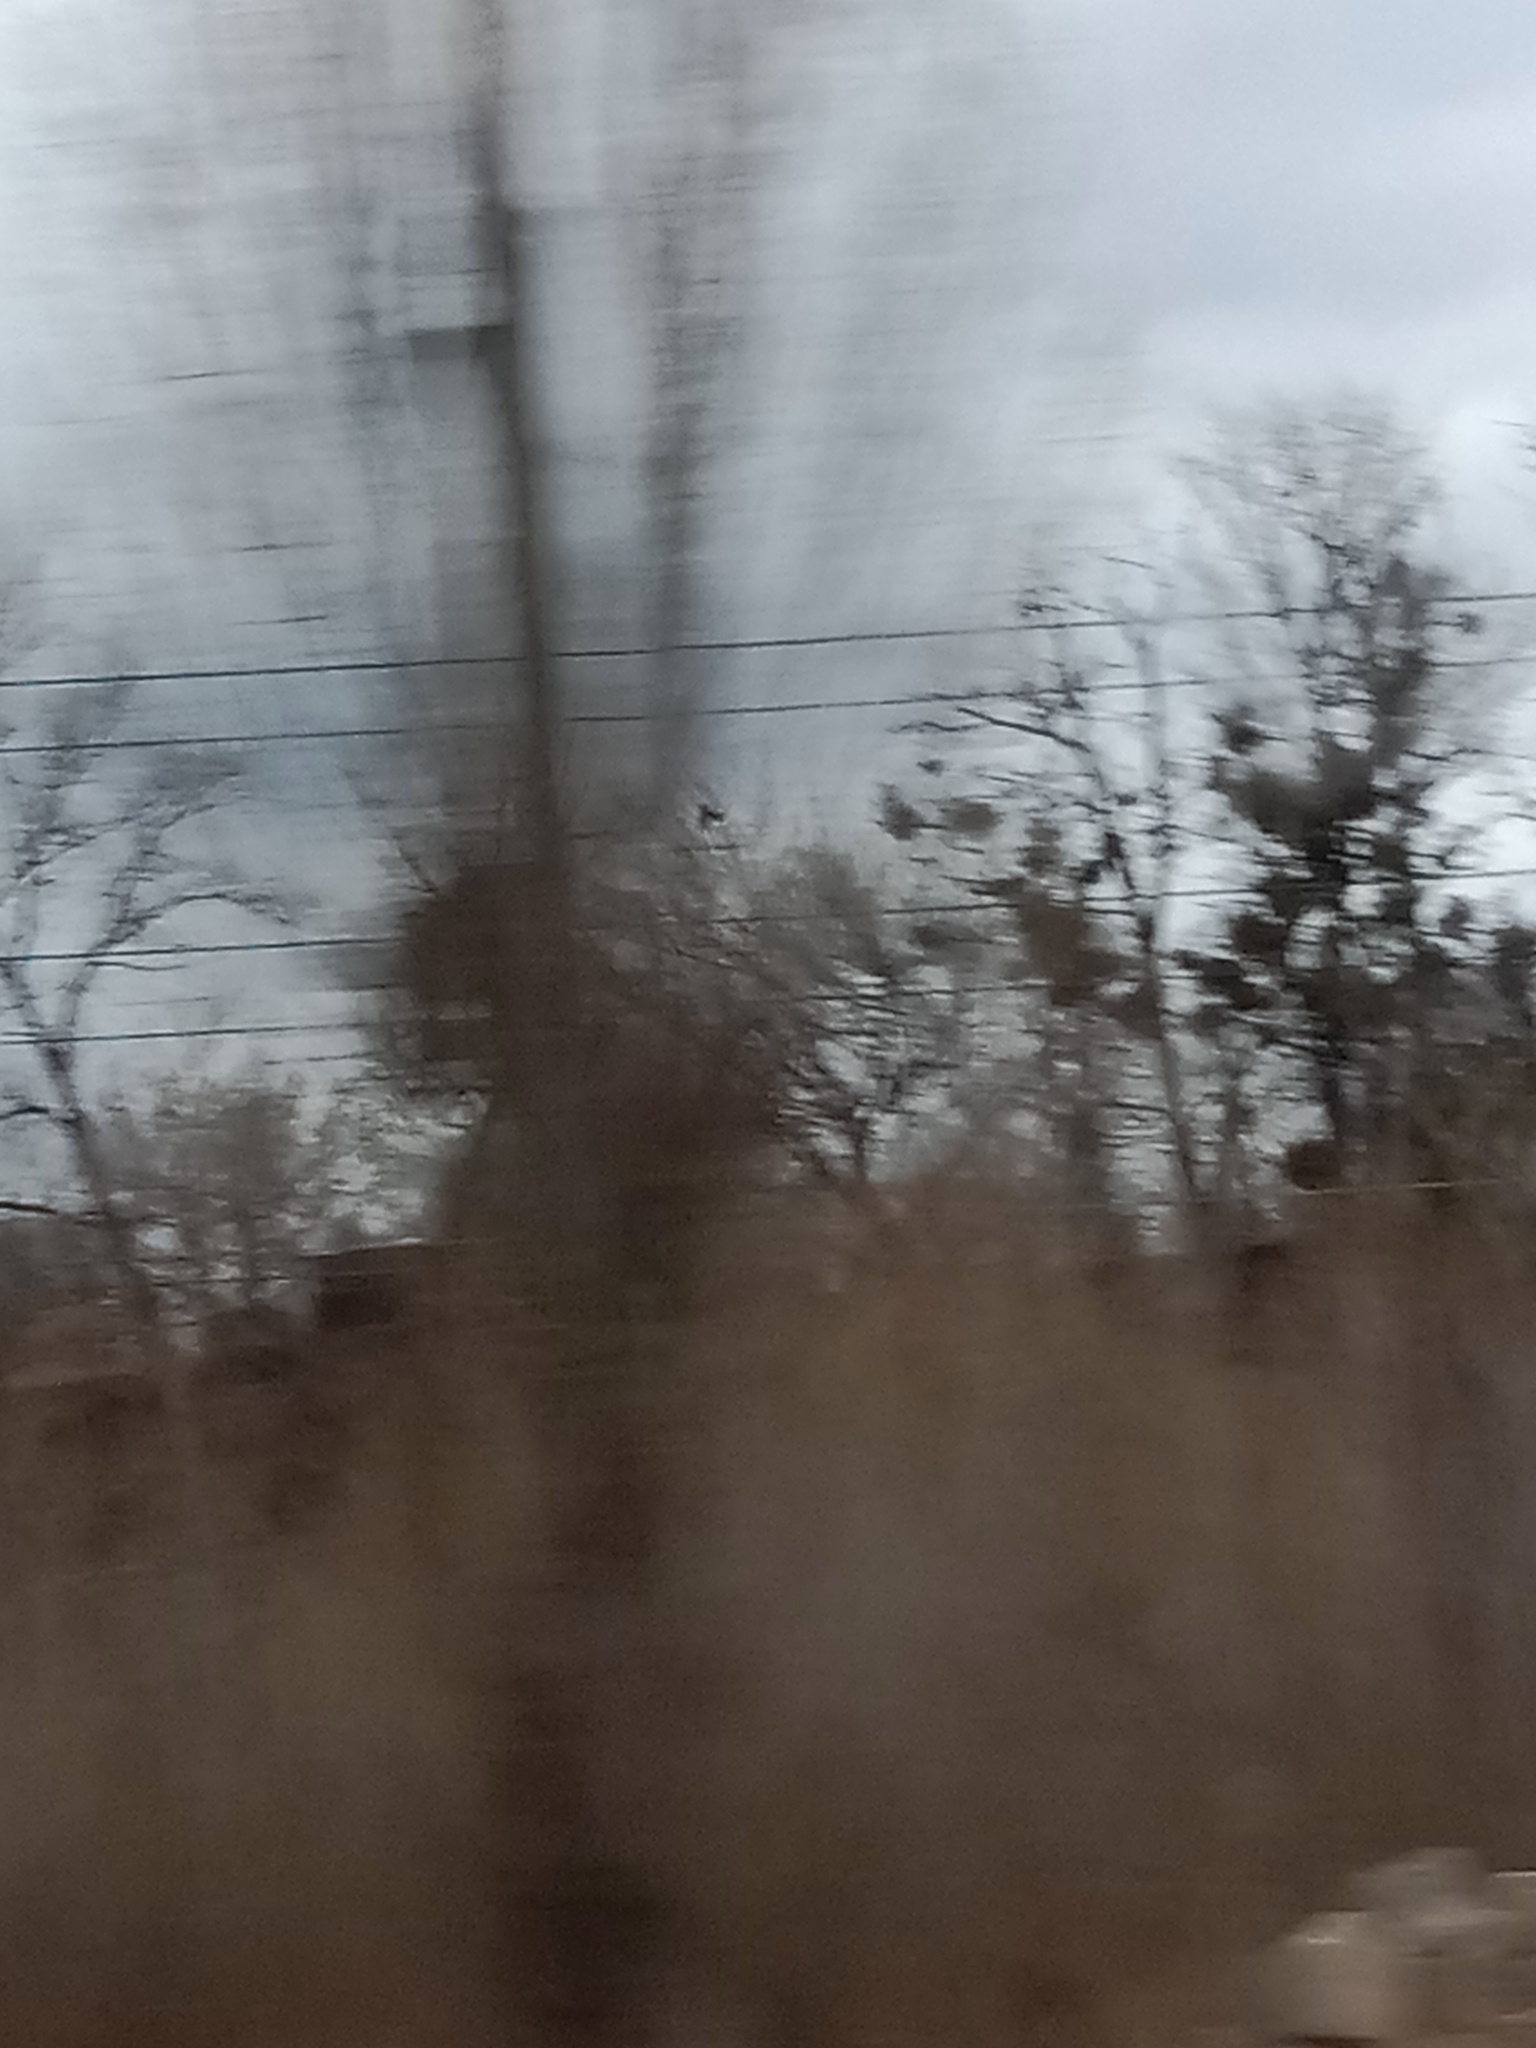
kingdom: Plantae
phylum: Tracheophyta
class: Magnoliopsida
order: Santalales
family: Viscaceae
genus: Viscum
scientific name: Viscum album
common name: Mistletoe
